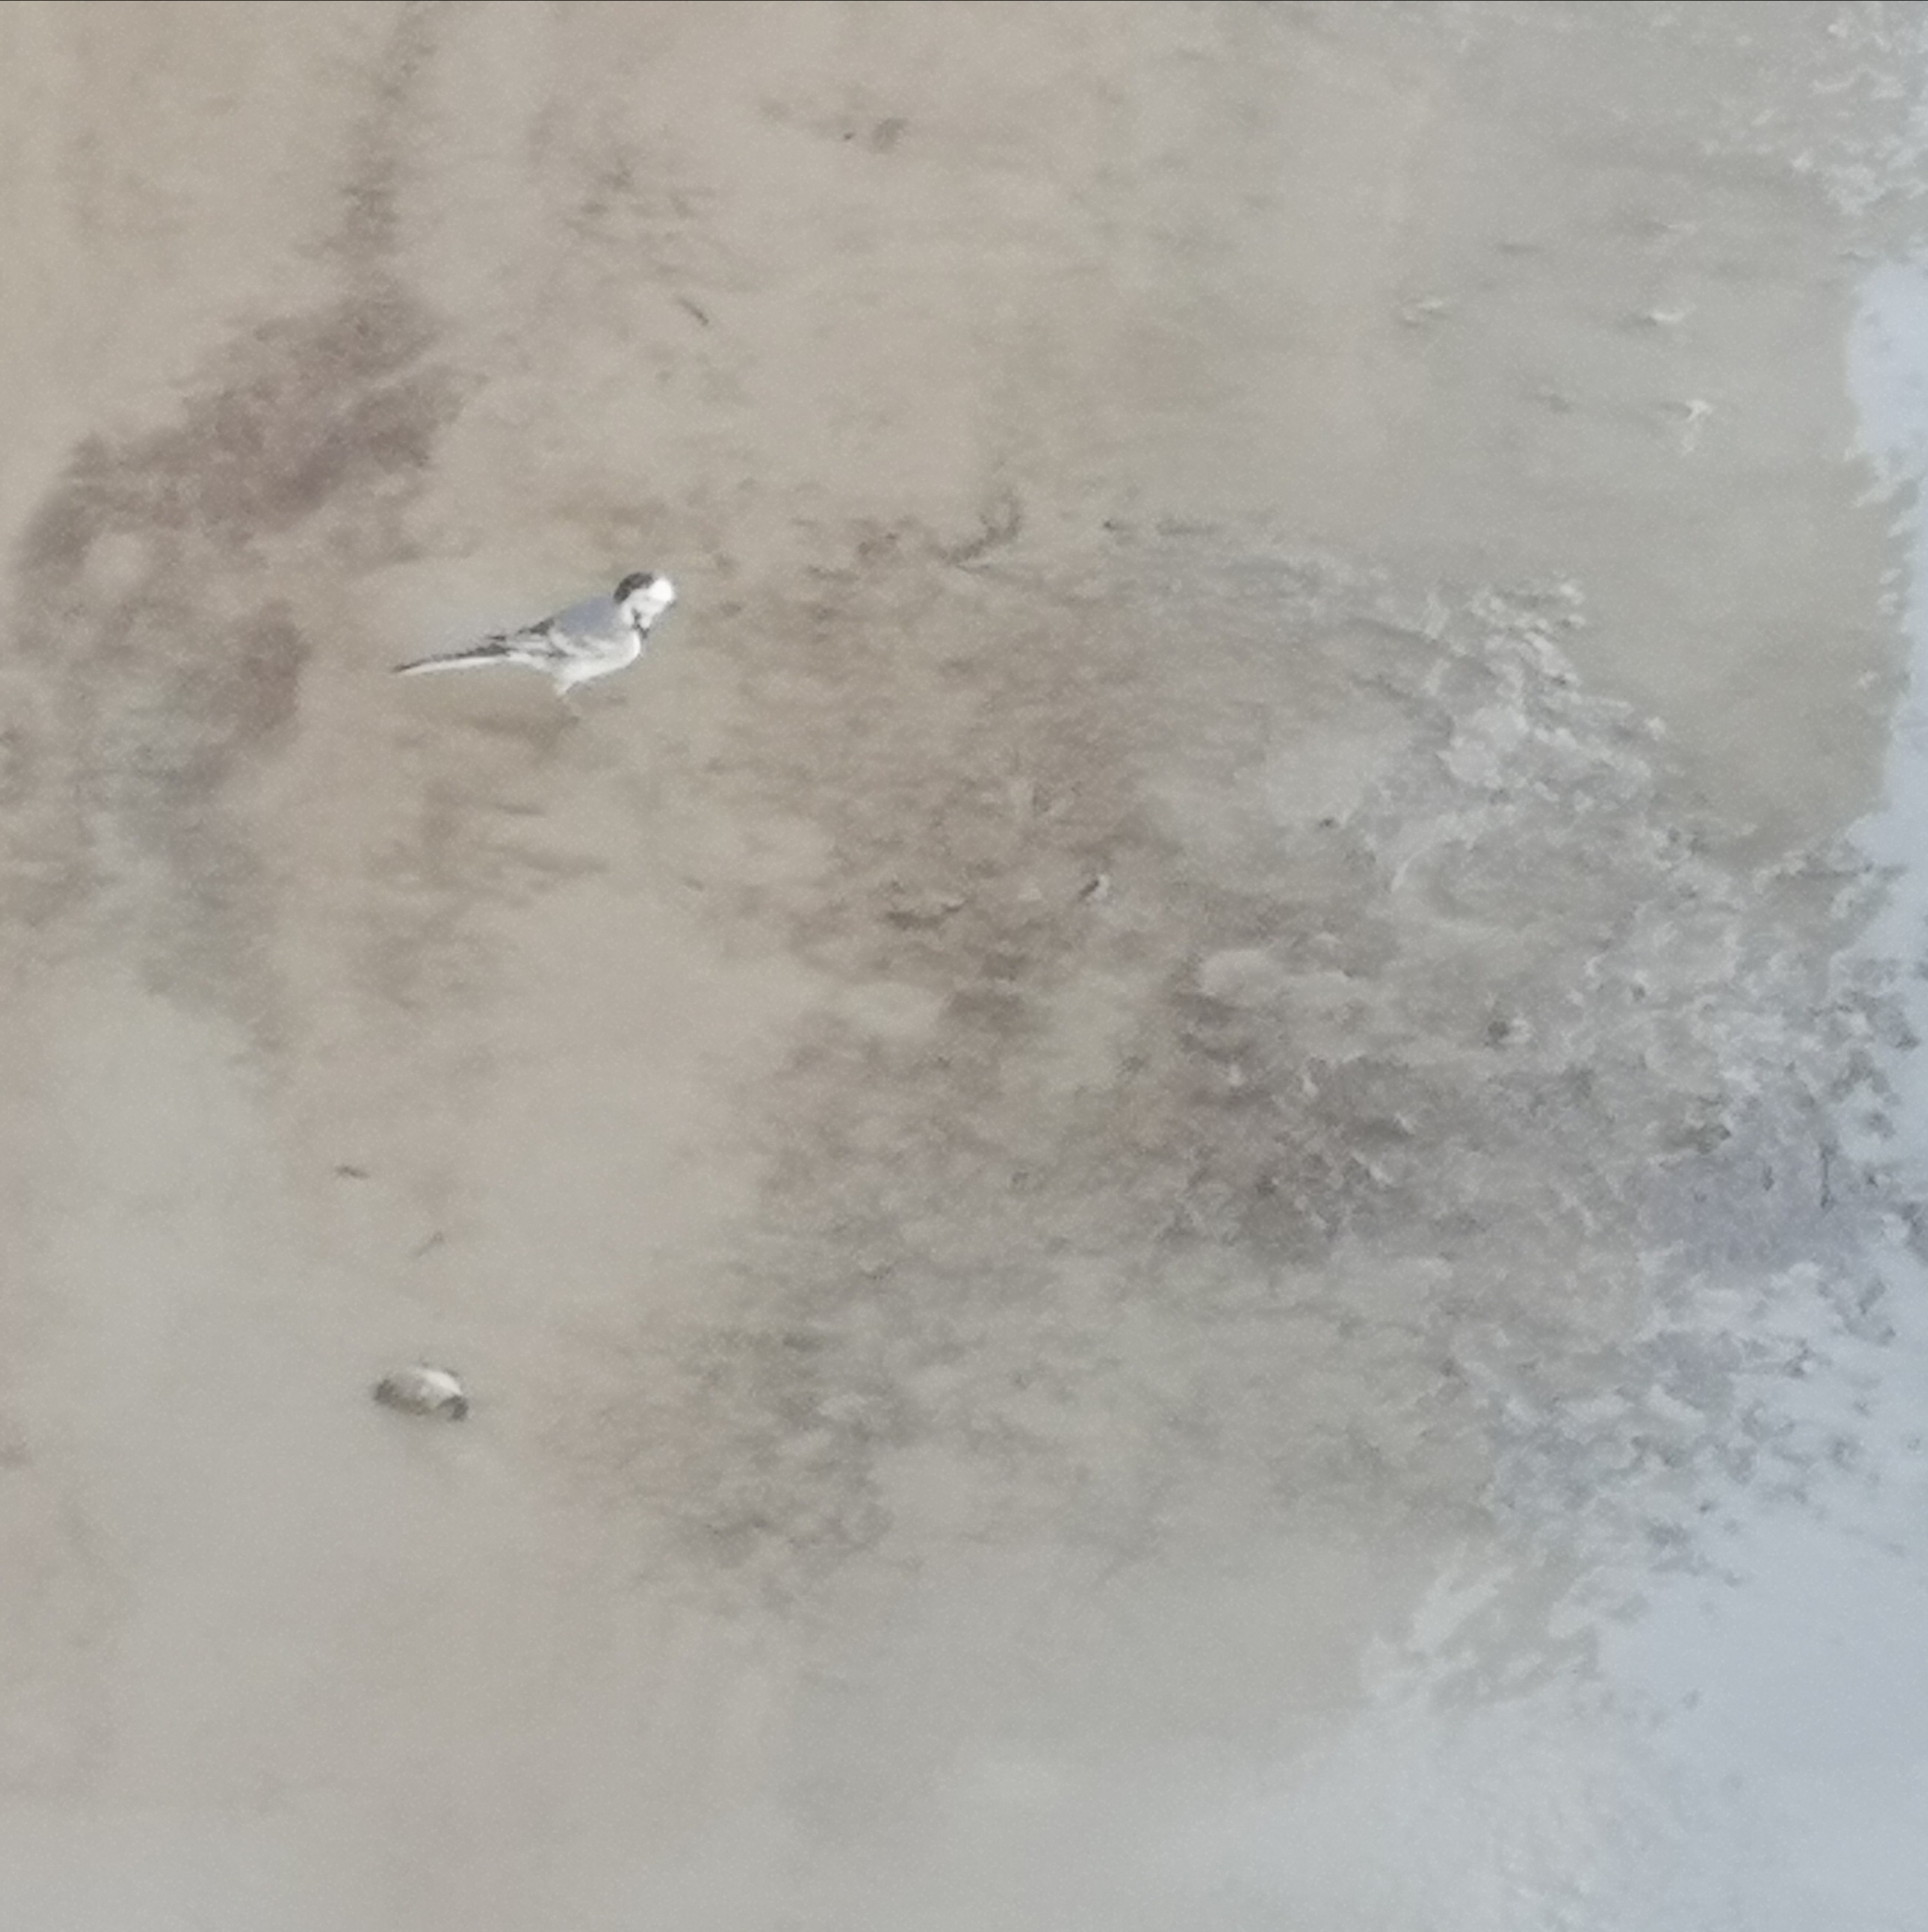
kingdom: Animalia
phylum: Chordata
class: Aves
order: Passeriformes
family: Motacillidae
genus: Motacilla
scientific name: Motacilla alba
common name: White wagtail
